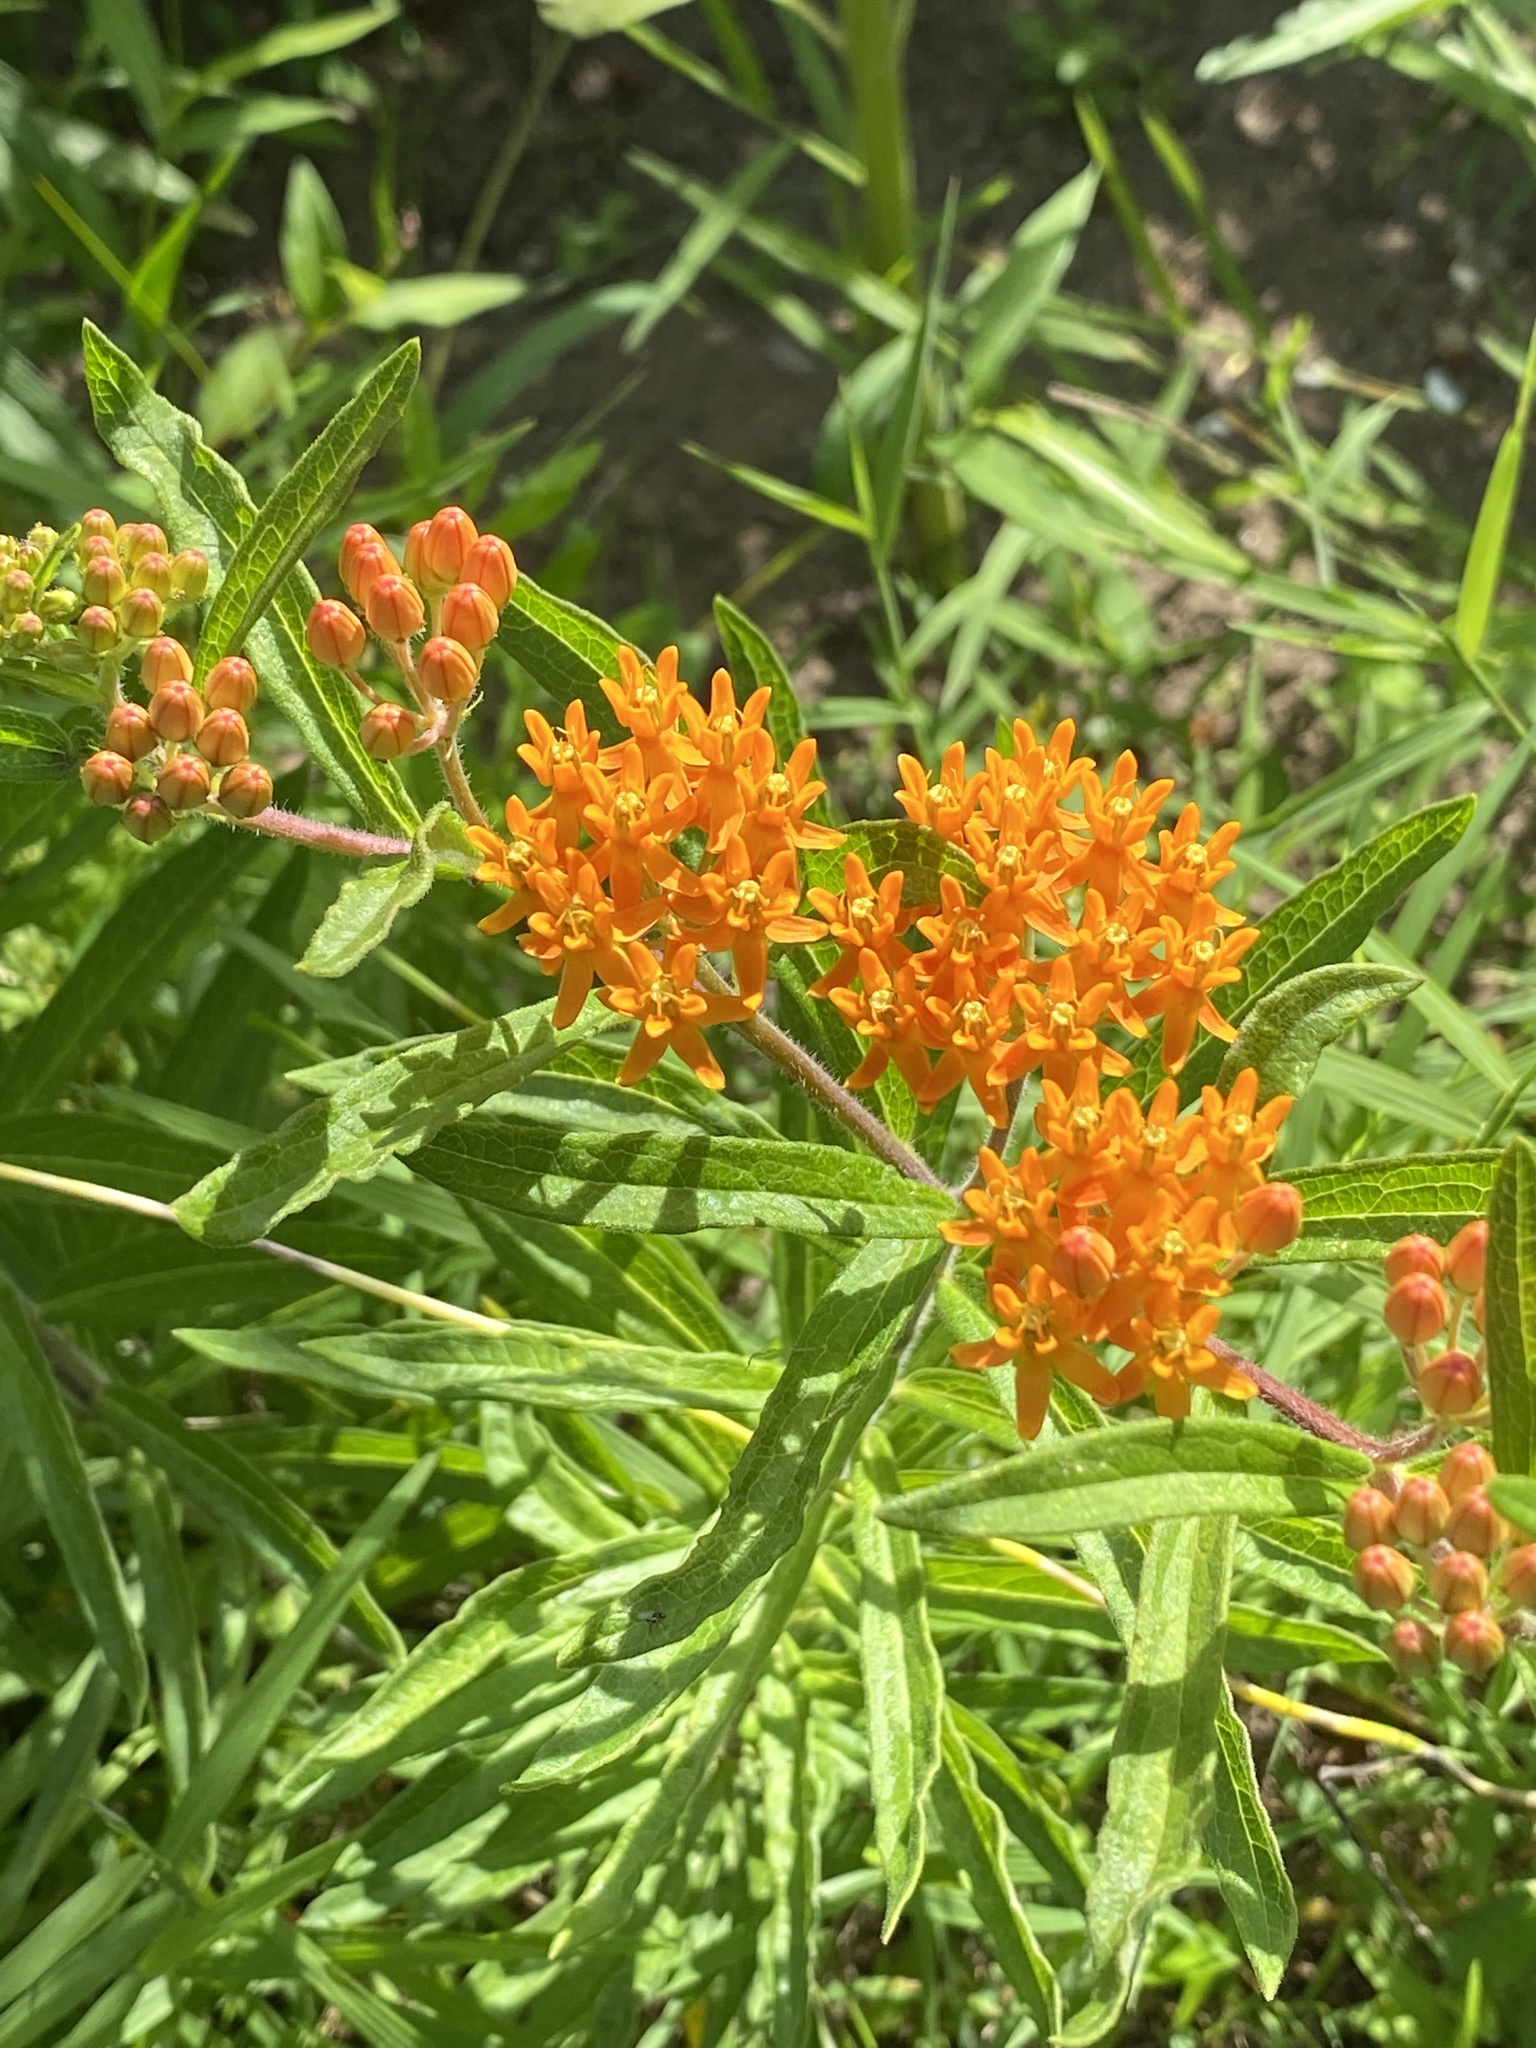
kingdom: Plantae
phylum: Tracheophyta
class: Magnoliopsida
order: Gentianales
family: Apocynaceae
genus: Asclepias
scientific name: Asclepias tuberosa
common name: Butterfly milkweed
